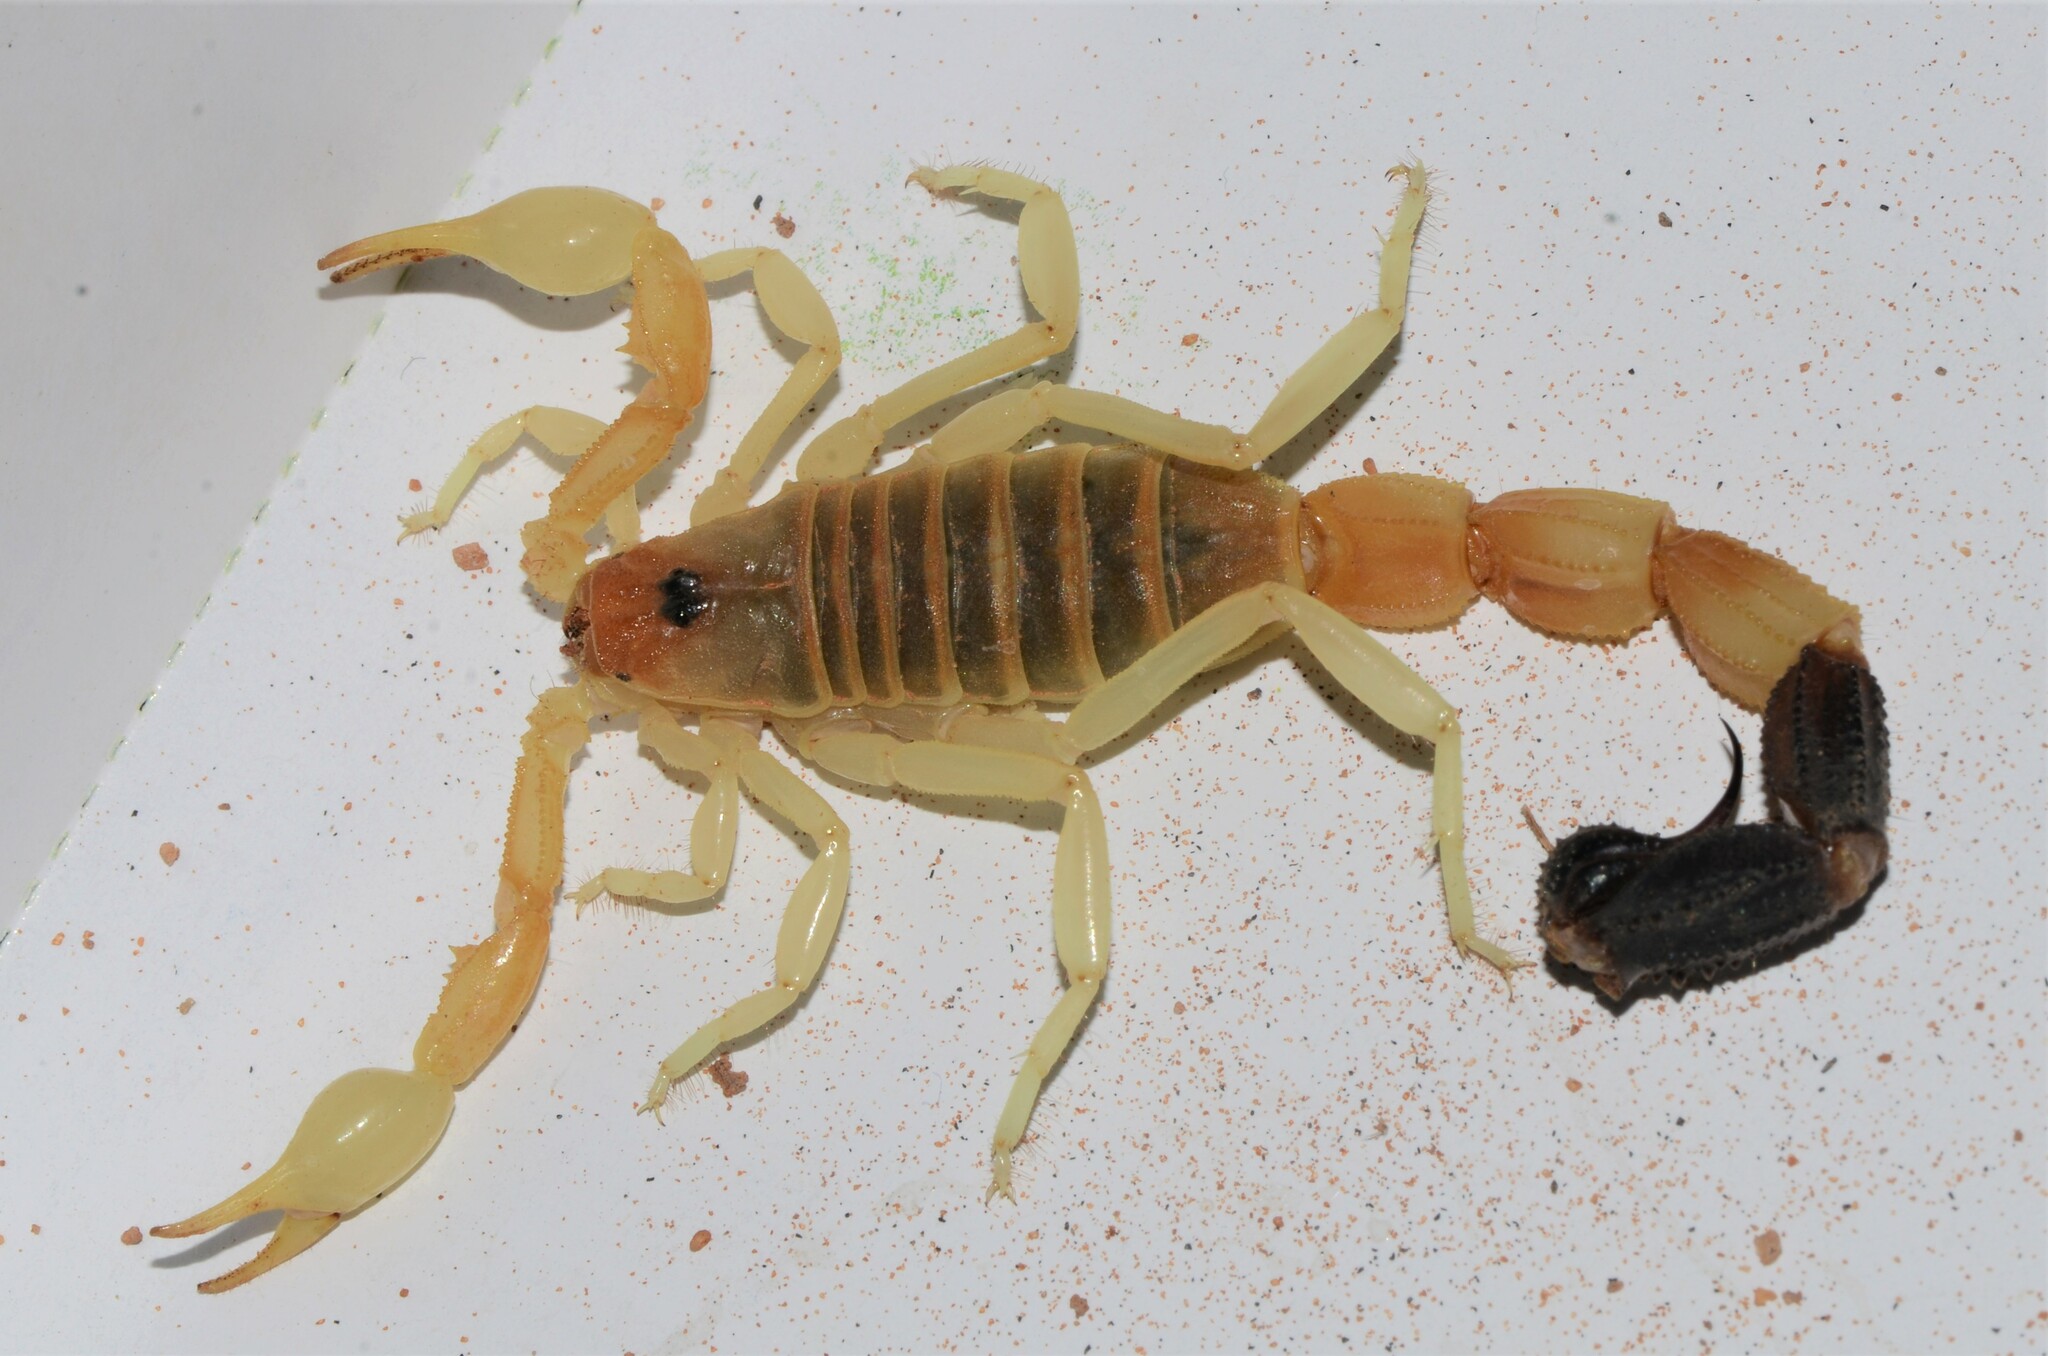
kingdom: Animalia
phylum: Arthropoda
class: Arachnida
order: Scorpiones
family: Buthidae
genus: Parabuthus
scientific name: Parabuthus laevifrons
